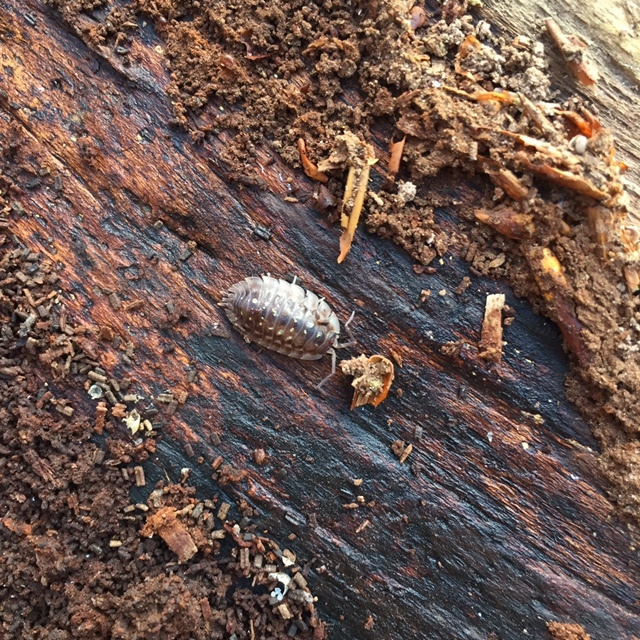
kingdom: Animalia
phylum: Arthropoda
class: Malacostraca
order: Isopoda
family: Oniscidae
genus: Oniscus
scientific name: Oniscus asellus
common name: Common shiny woodlouse
